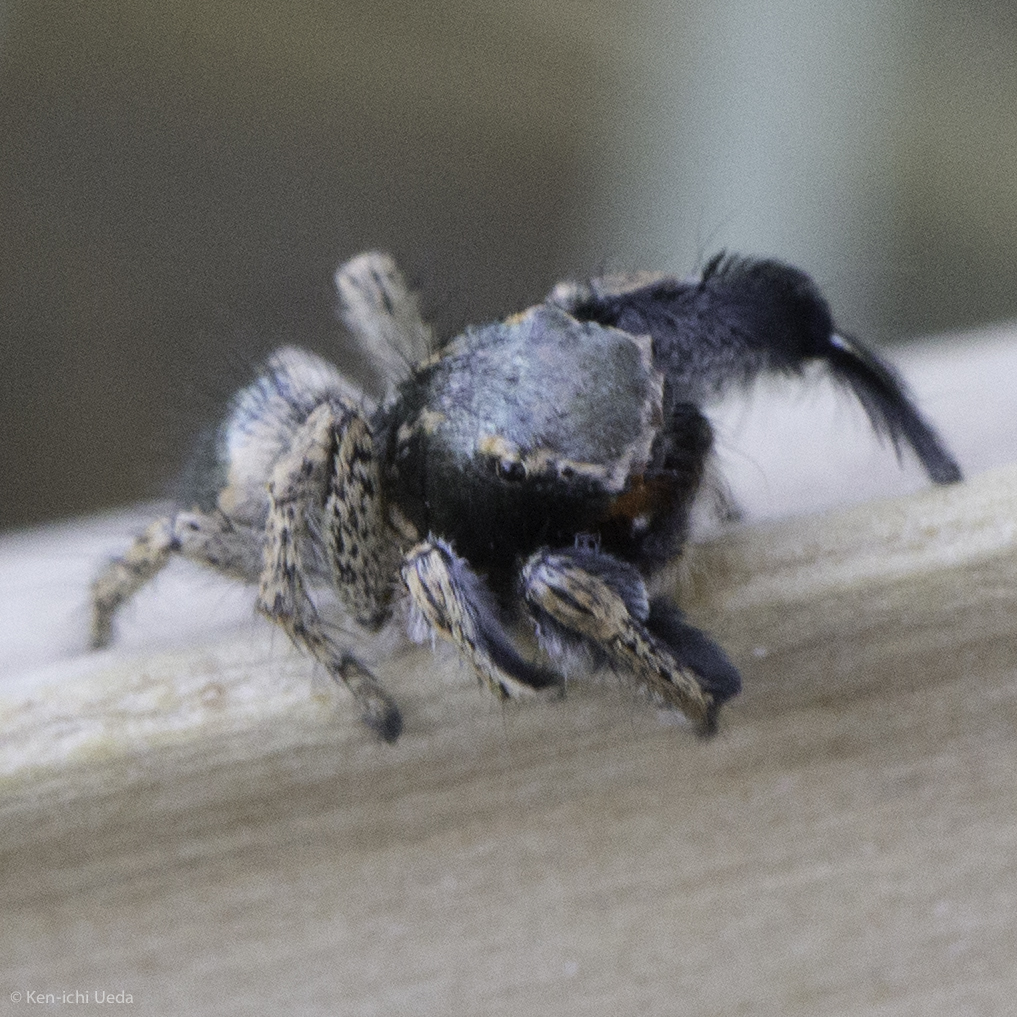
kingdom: Animalia
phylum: Arthropoda
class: Arachnida
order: Araneae
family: Salticidae
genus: Habronattus
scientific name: Habronattus hirsutus
